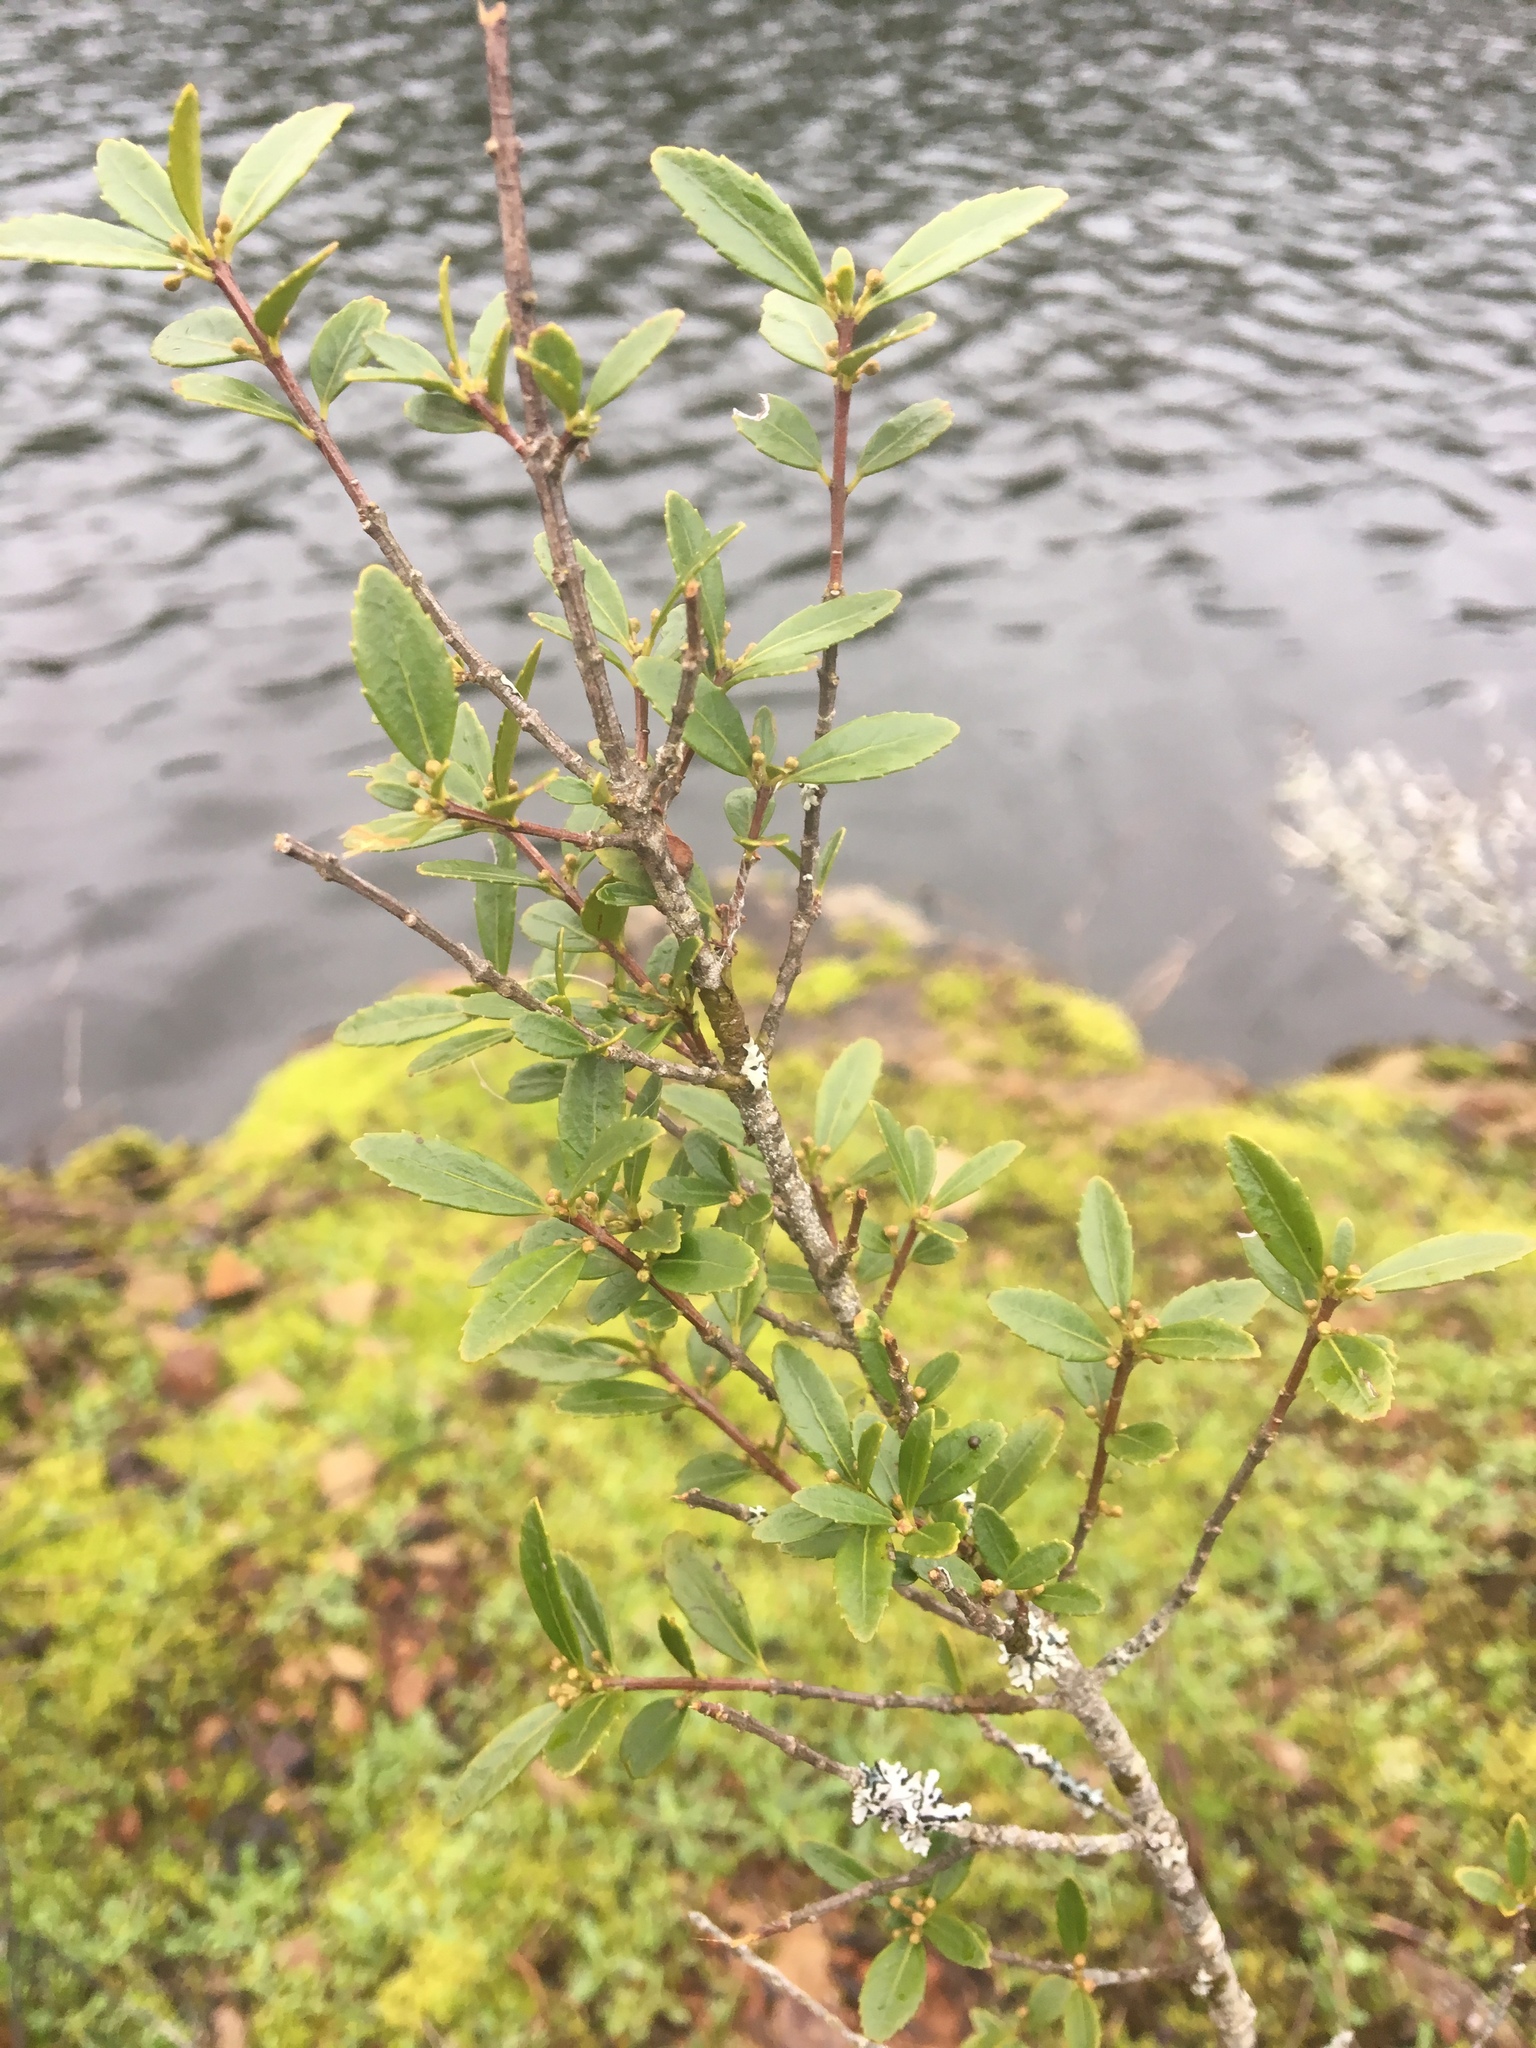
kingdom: Plantae
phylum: Tracheophyta
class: Magnoliopsida
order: Celastrales
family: Celastraceae
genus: Paxistima
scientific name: Paxistima myrsinites
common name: Mountain-lover
